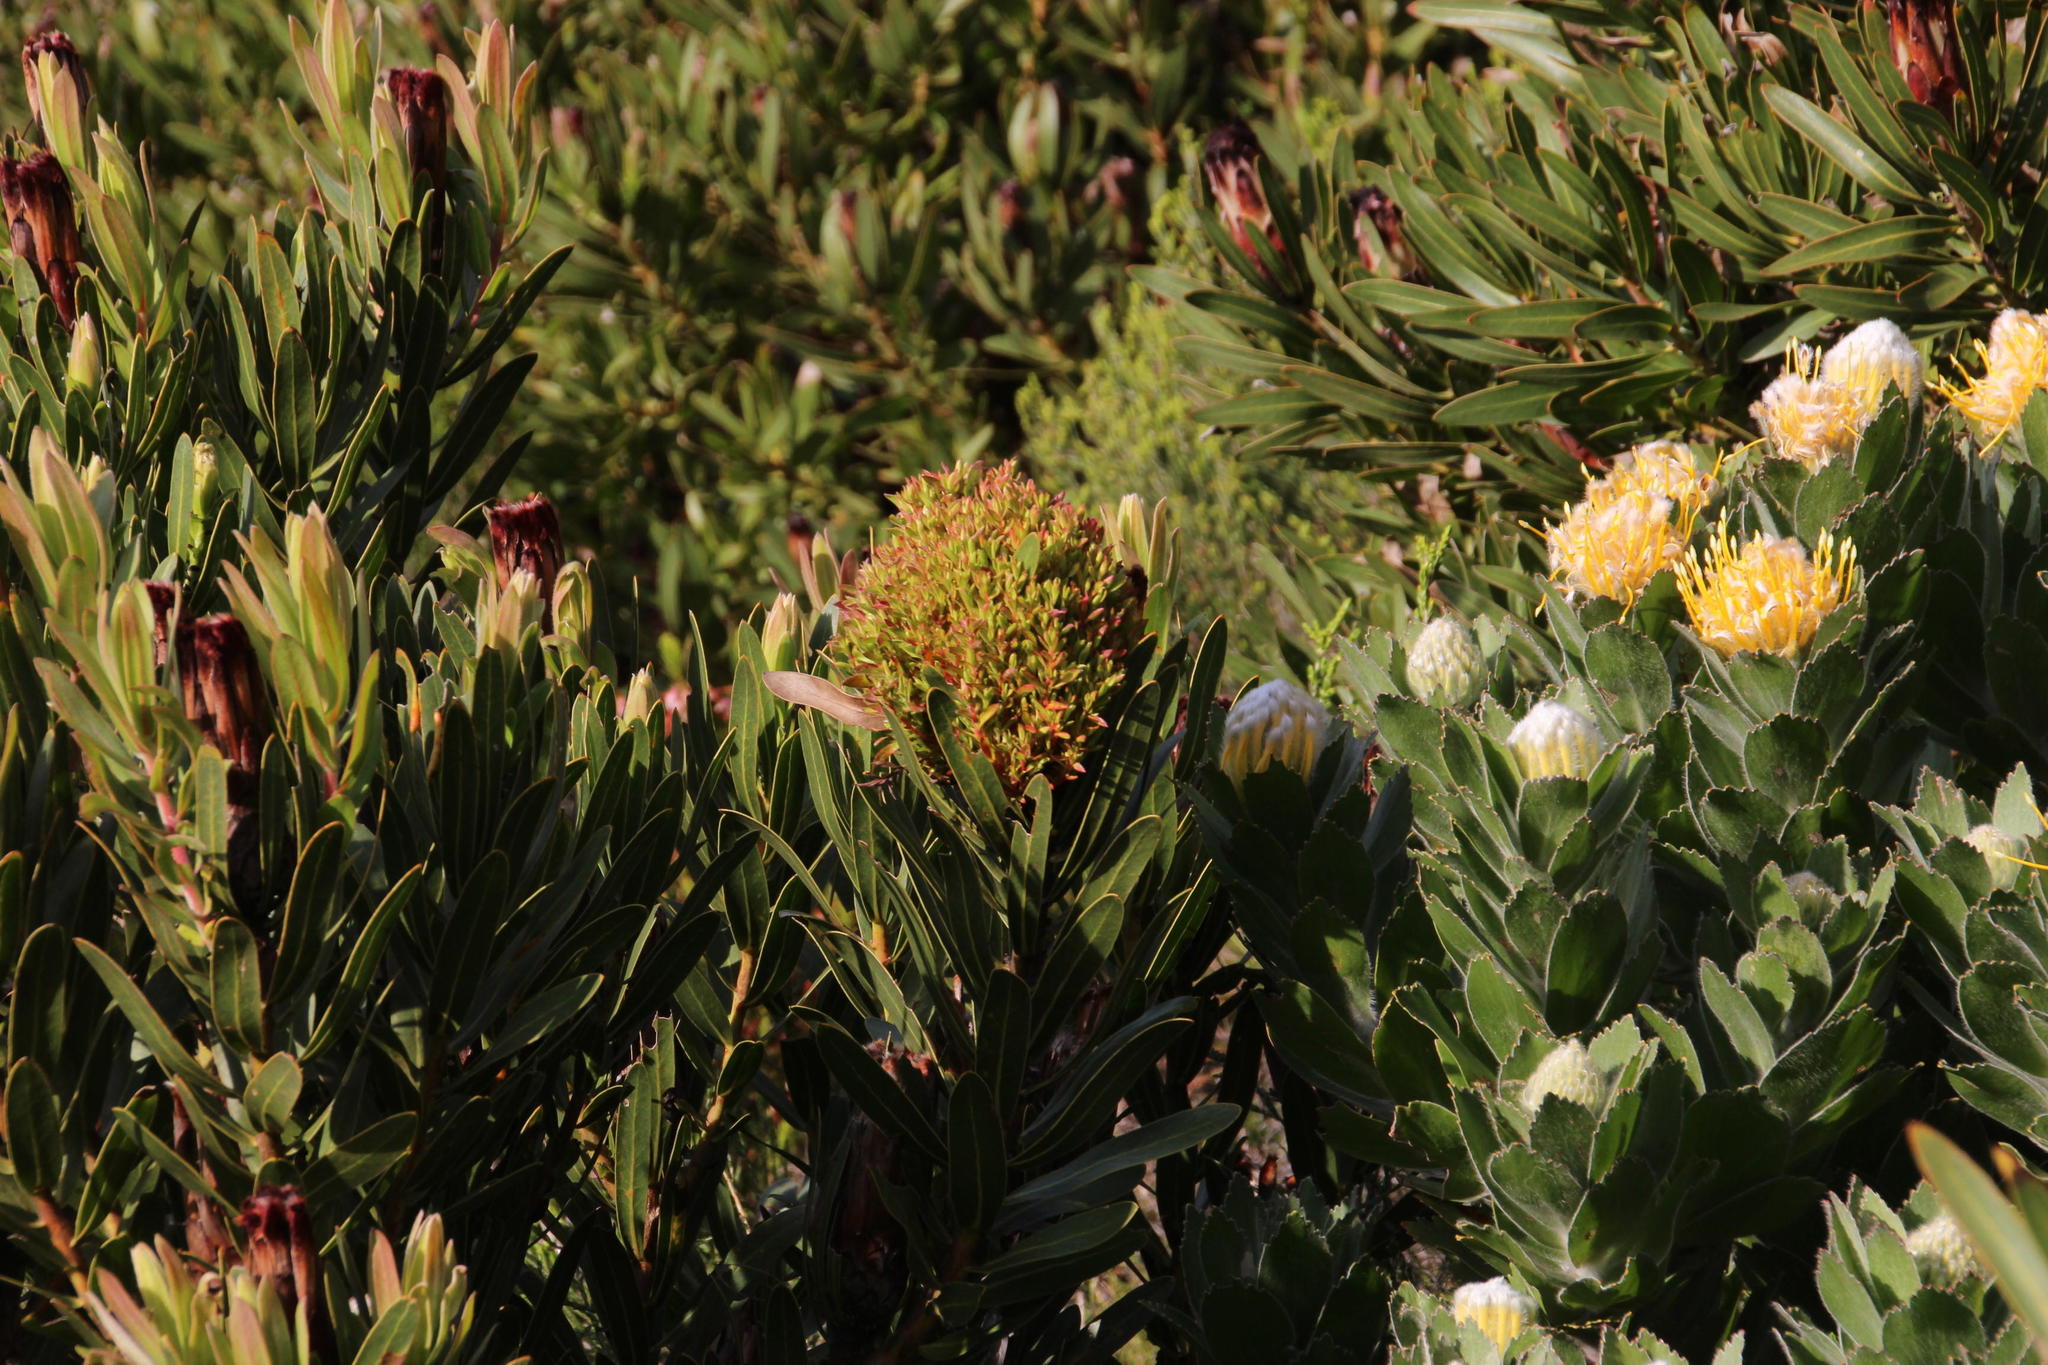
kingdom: Bacteria
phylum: Firmicutes
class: Bacilli
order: Acholeplasmatales
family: Acholeplasmataceae
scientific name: Acholeplasmataceae
